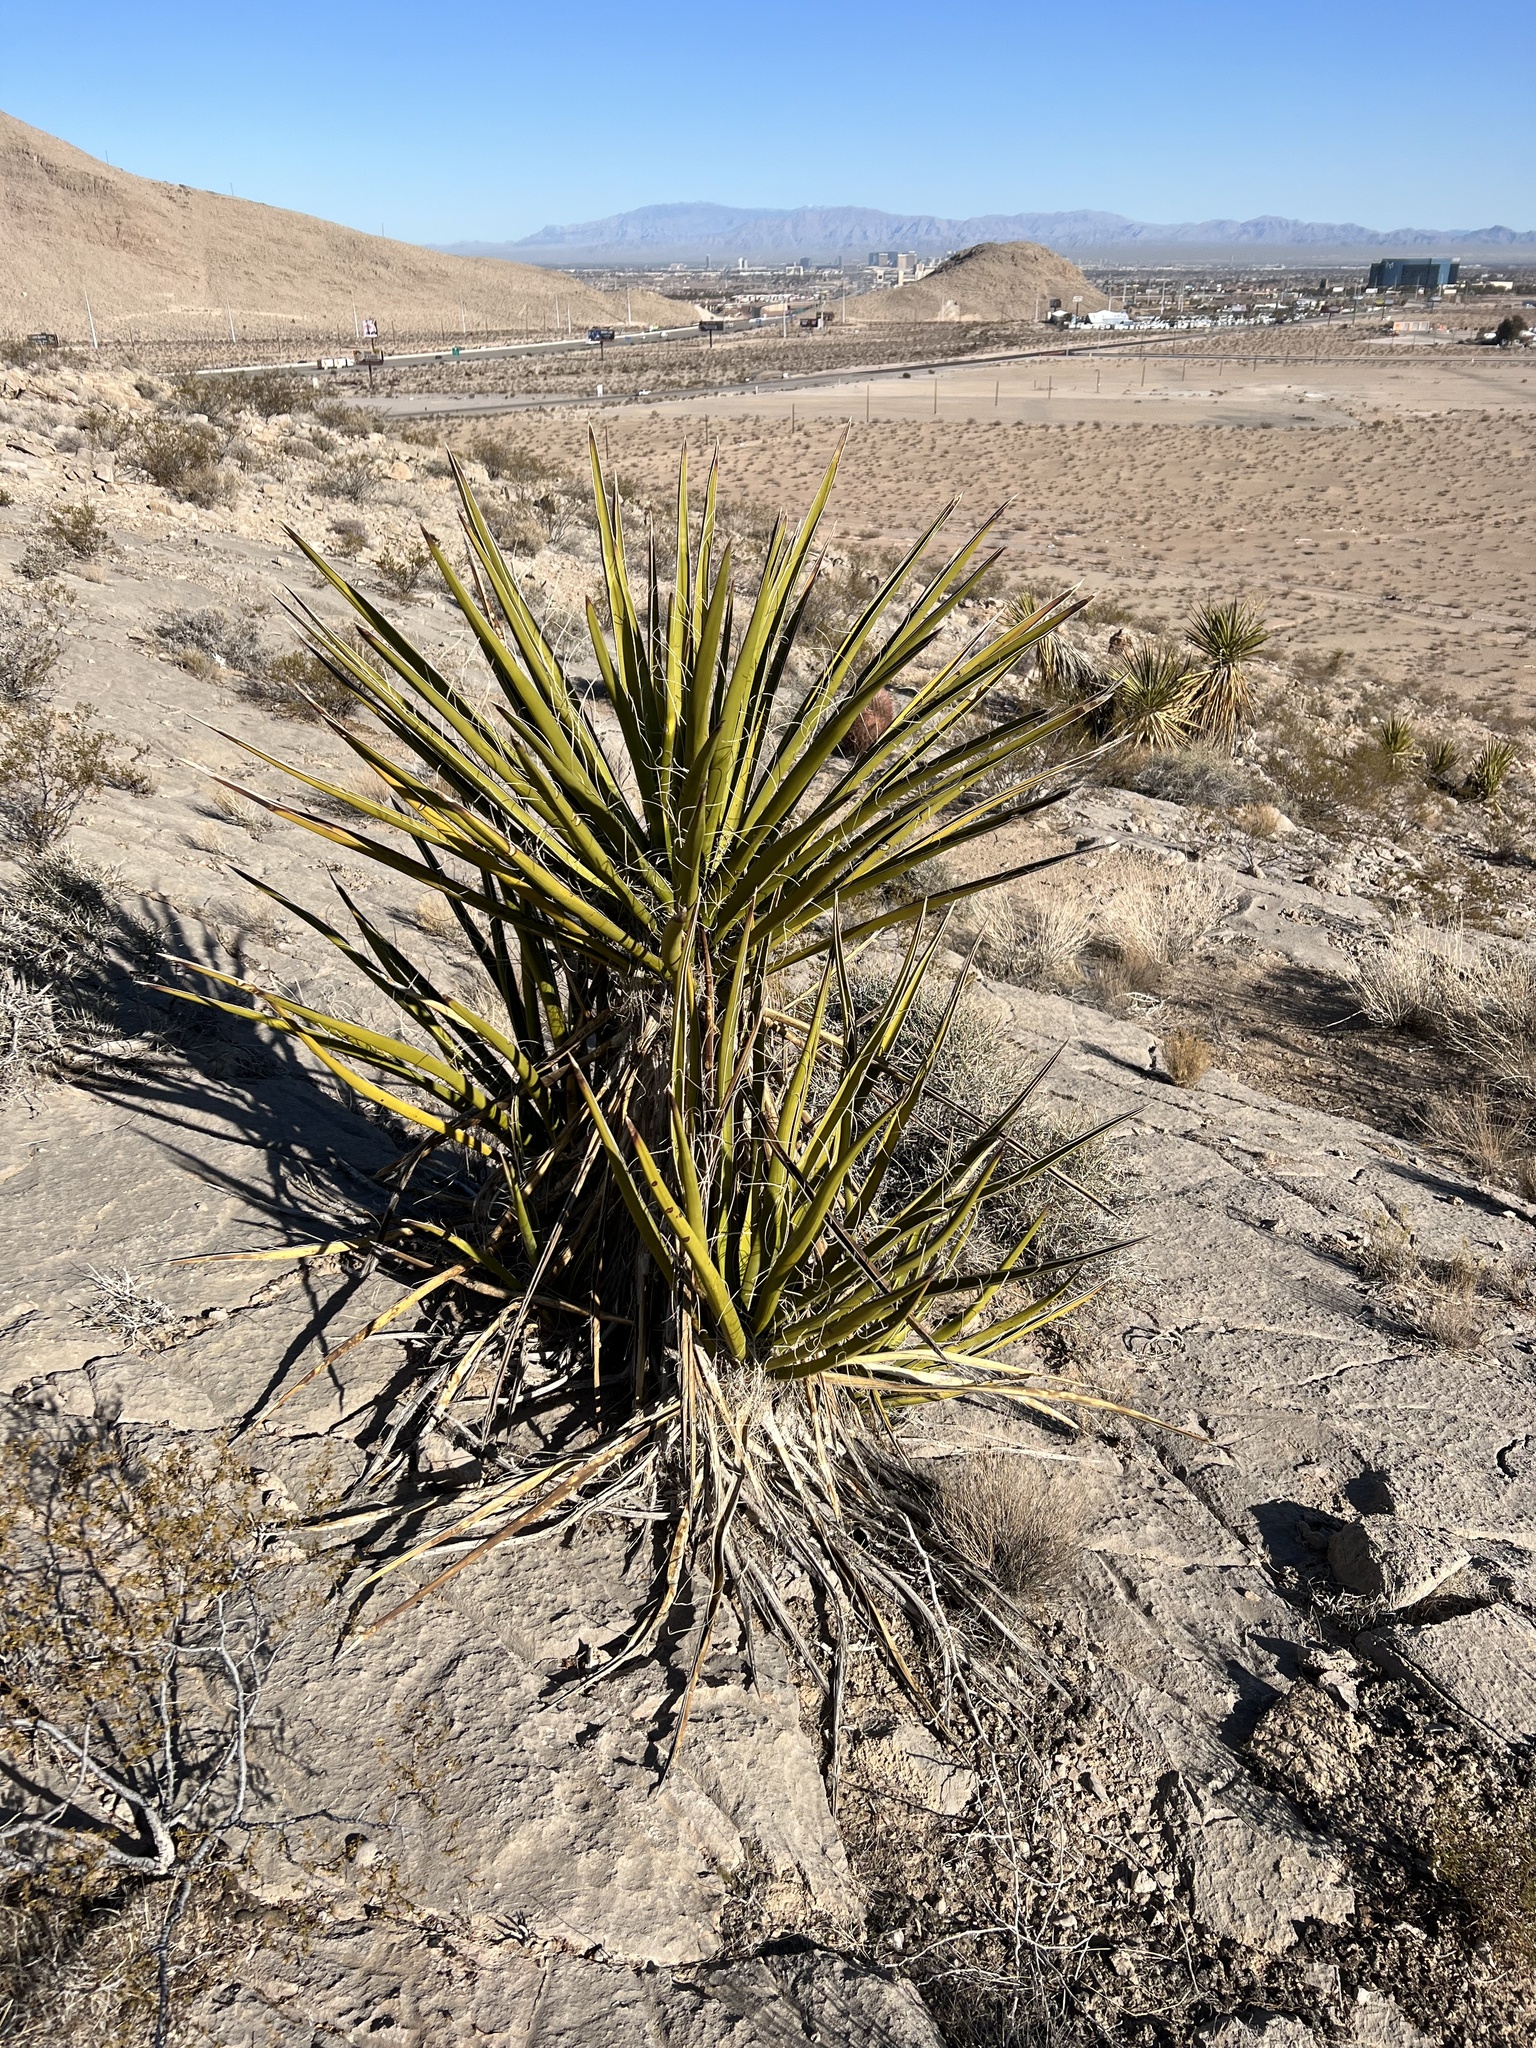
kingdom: Plantae
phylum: Tracheophyta
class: Liliopsida
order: Asparagales
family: Asparagaceae
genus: Yucca
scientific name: Yucca schidigera
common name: Mojave yucca
